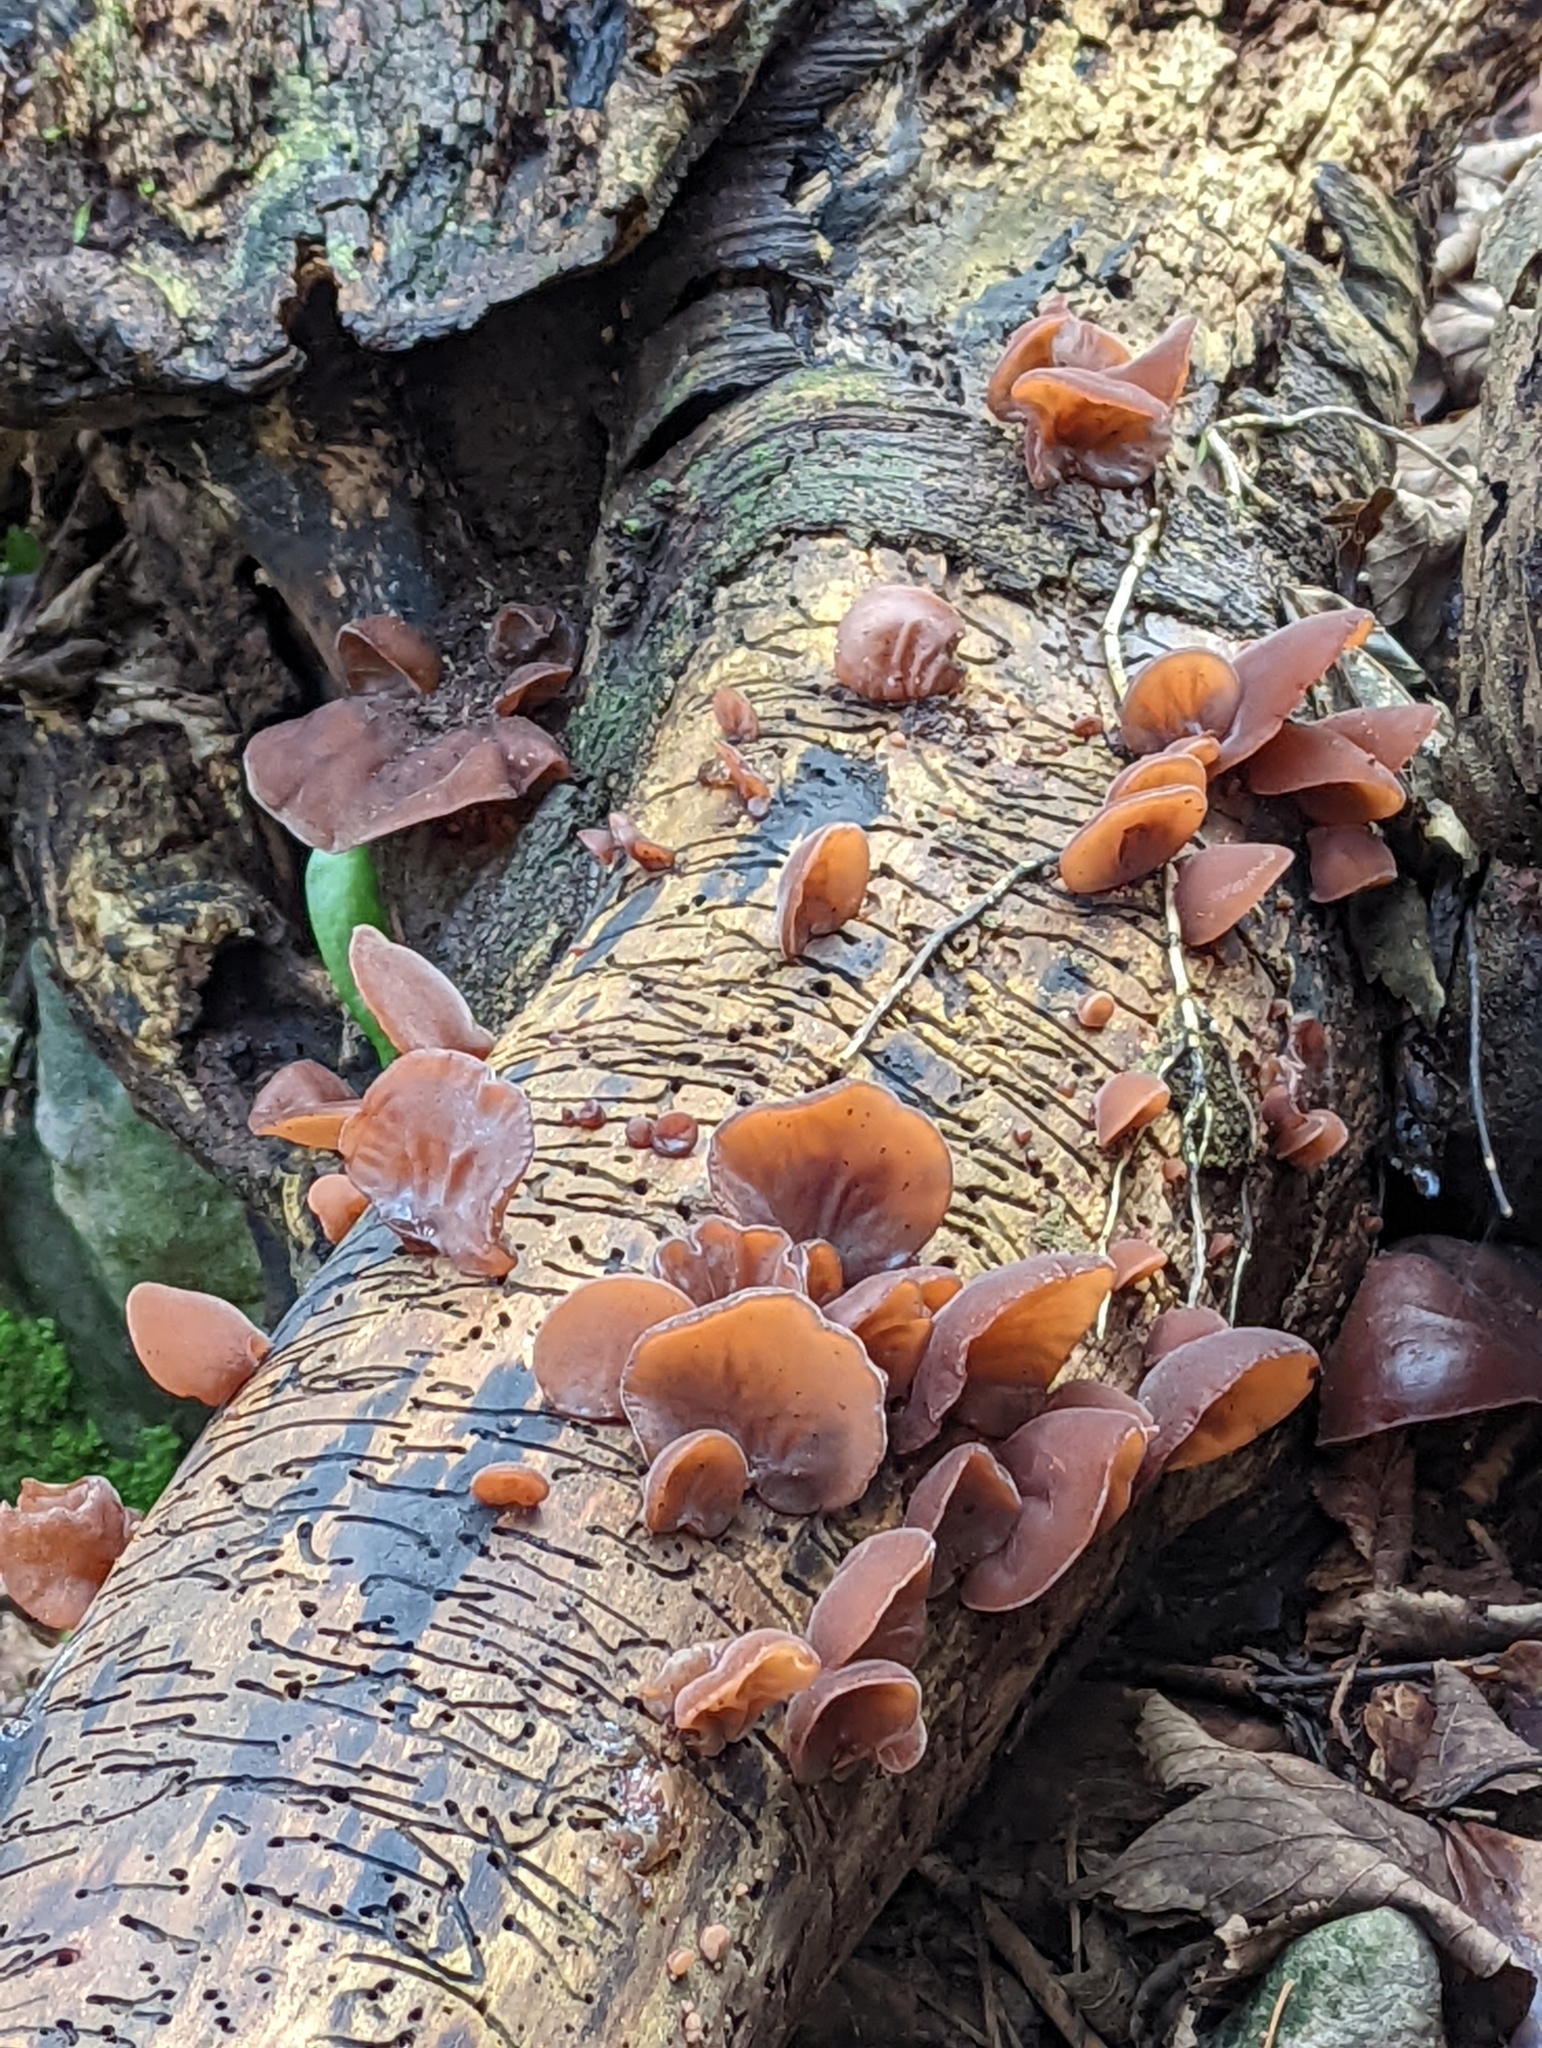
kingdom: Fungi
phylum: Basidiomycota
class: Agaricomycetes
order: Auriculariales
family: Auriculariaceae
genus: Auricularia
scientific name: Auricularia auricula-judae
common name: Jelly ear
